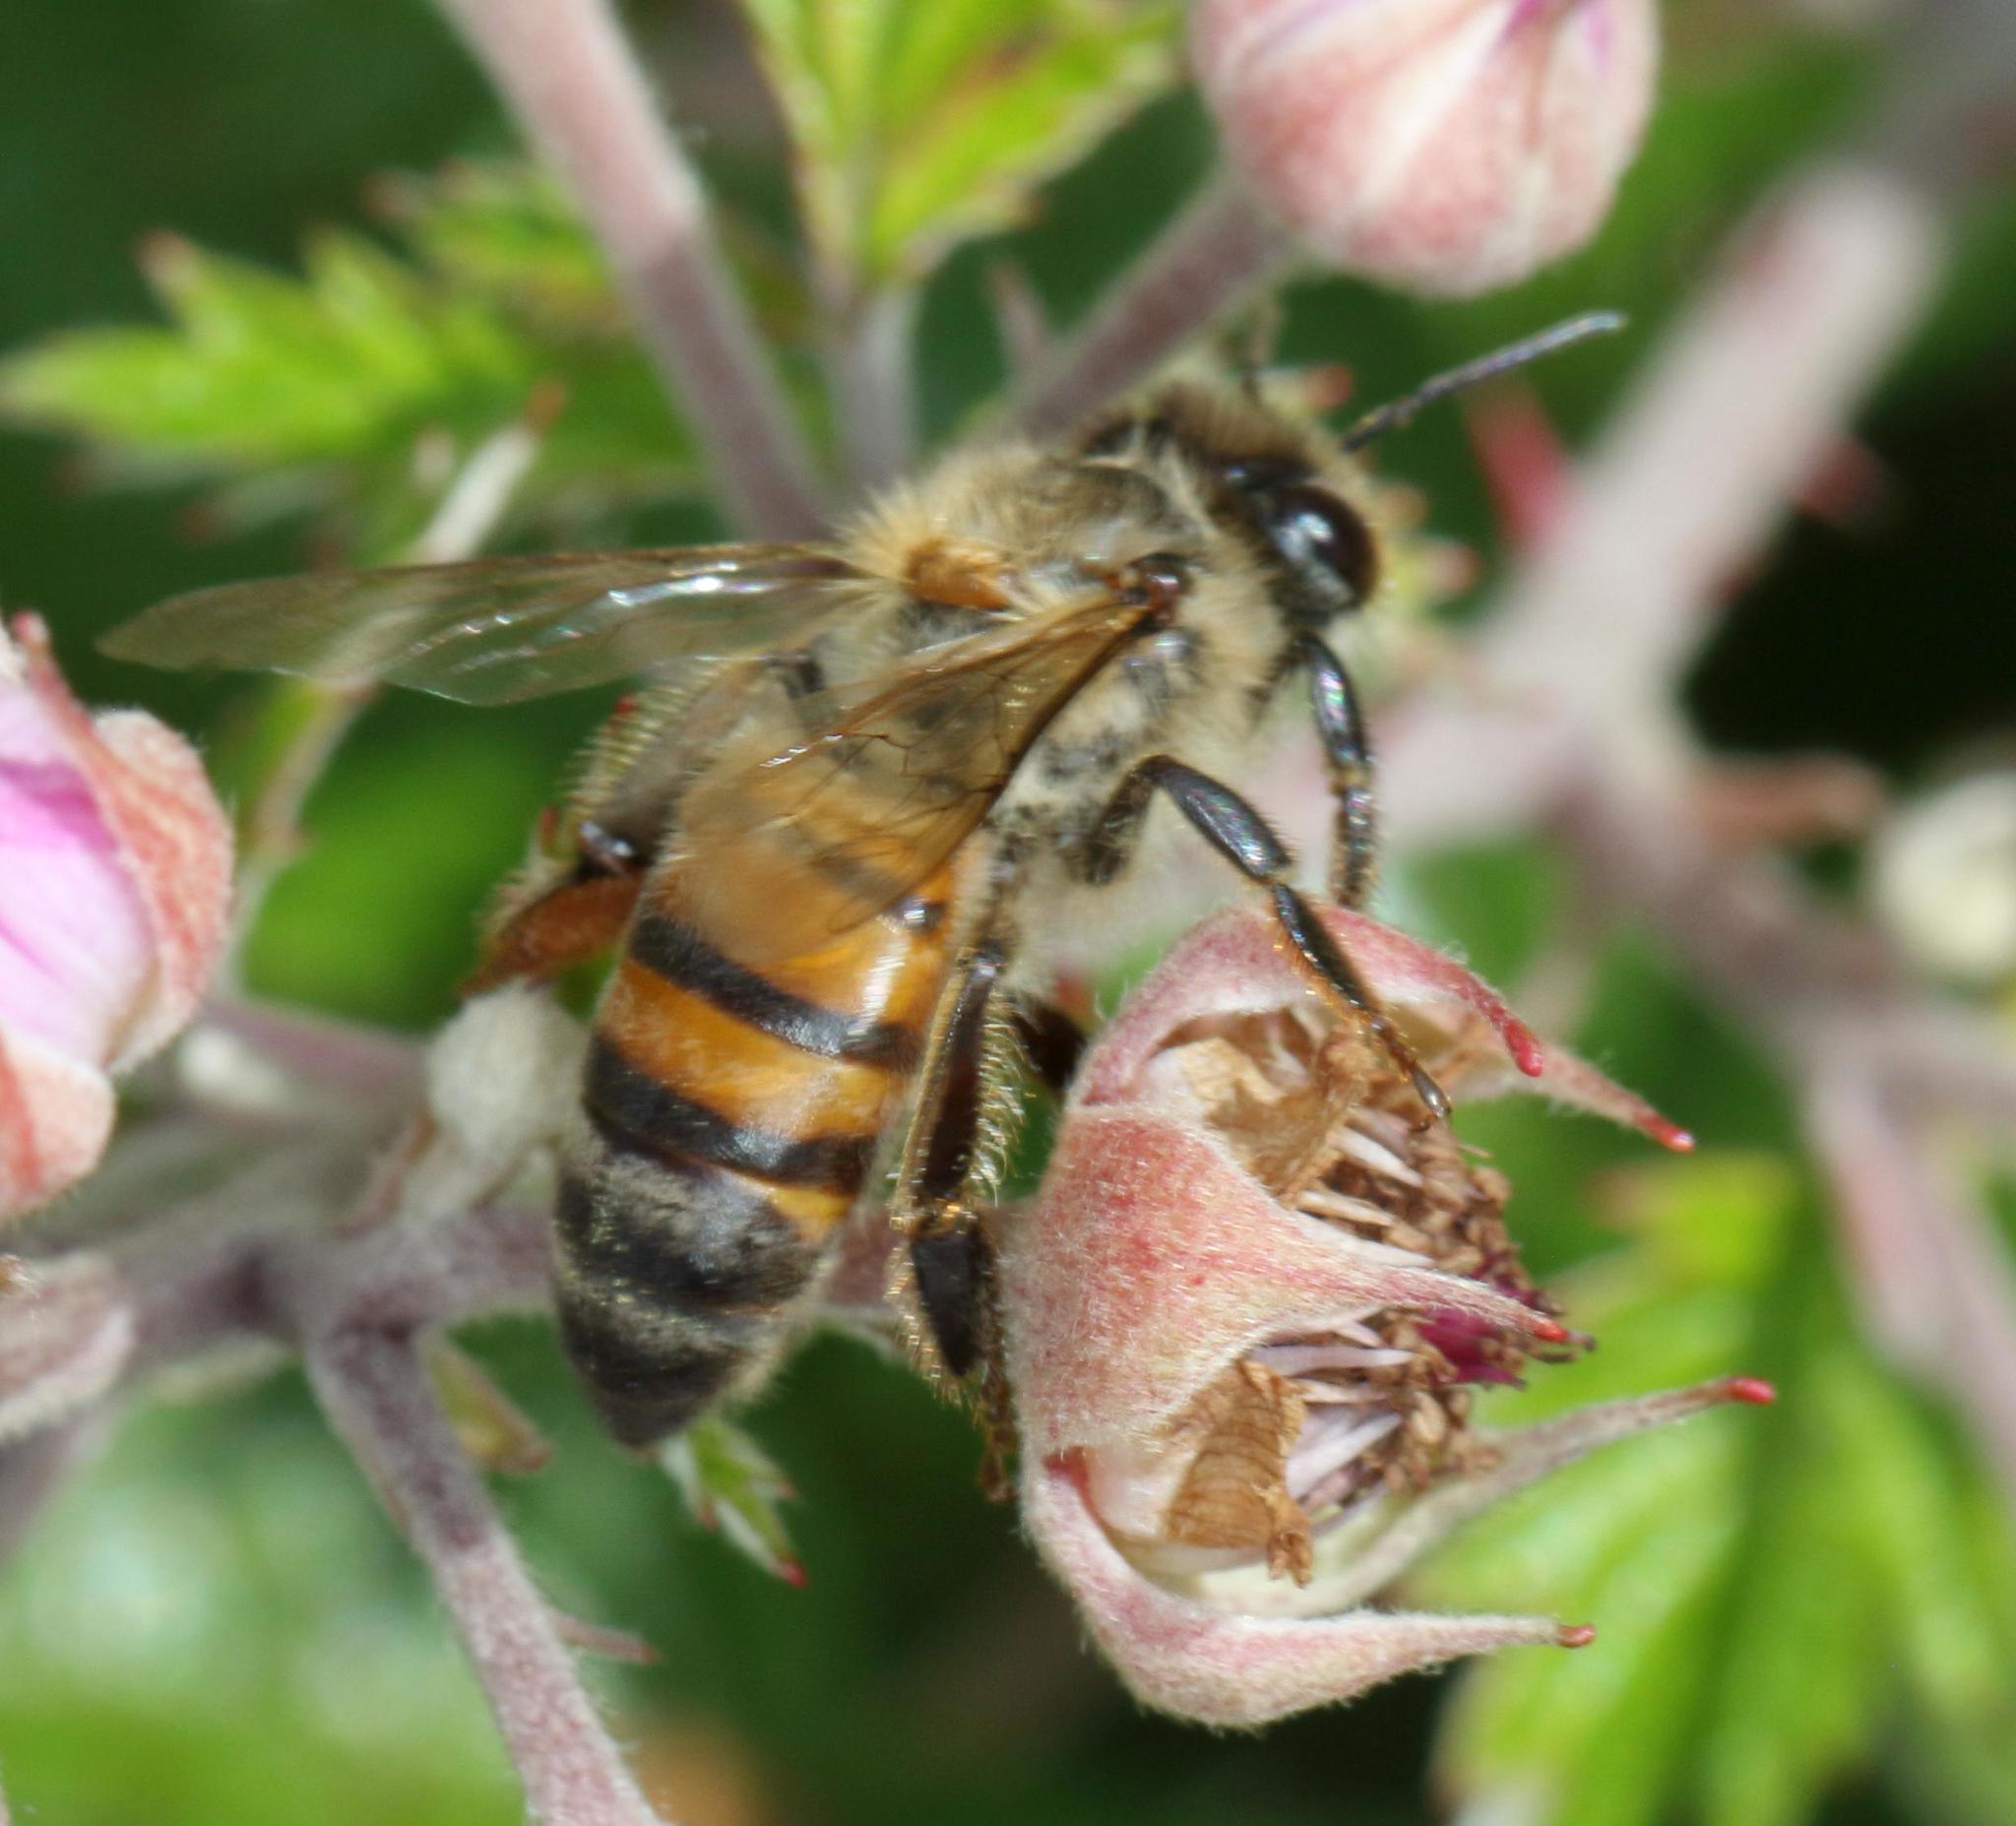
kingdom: Animalia
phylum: Arthropoda
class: Insecta
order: Hymenoptera
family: Apidae
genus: Apis
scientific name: Apis mellifera
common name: Honey bee
